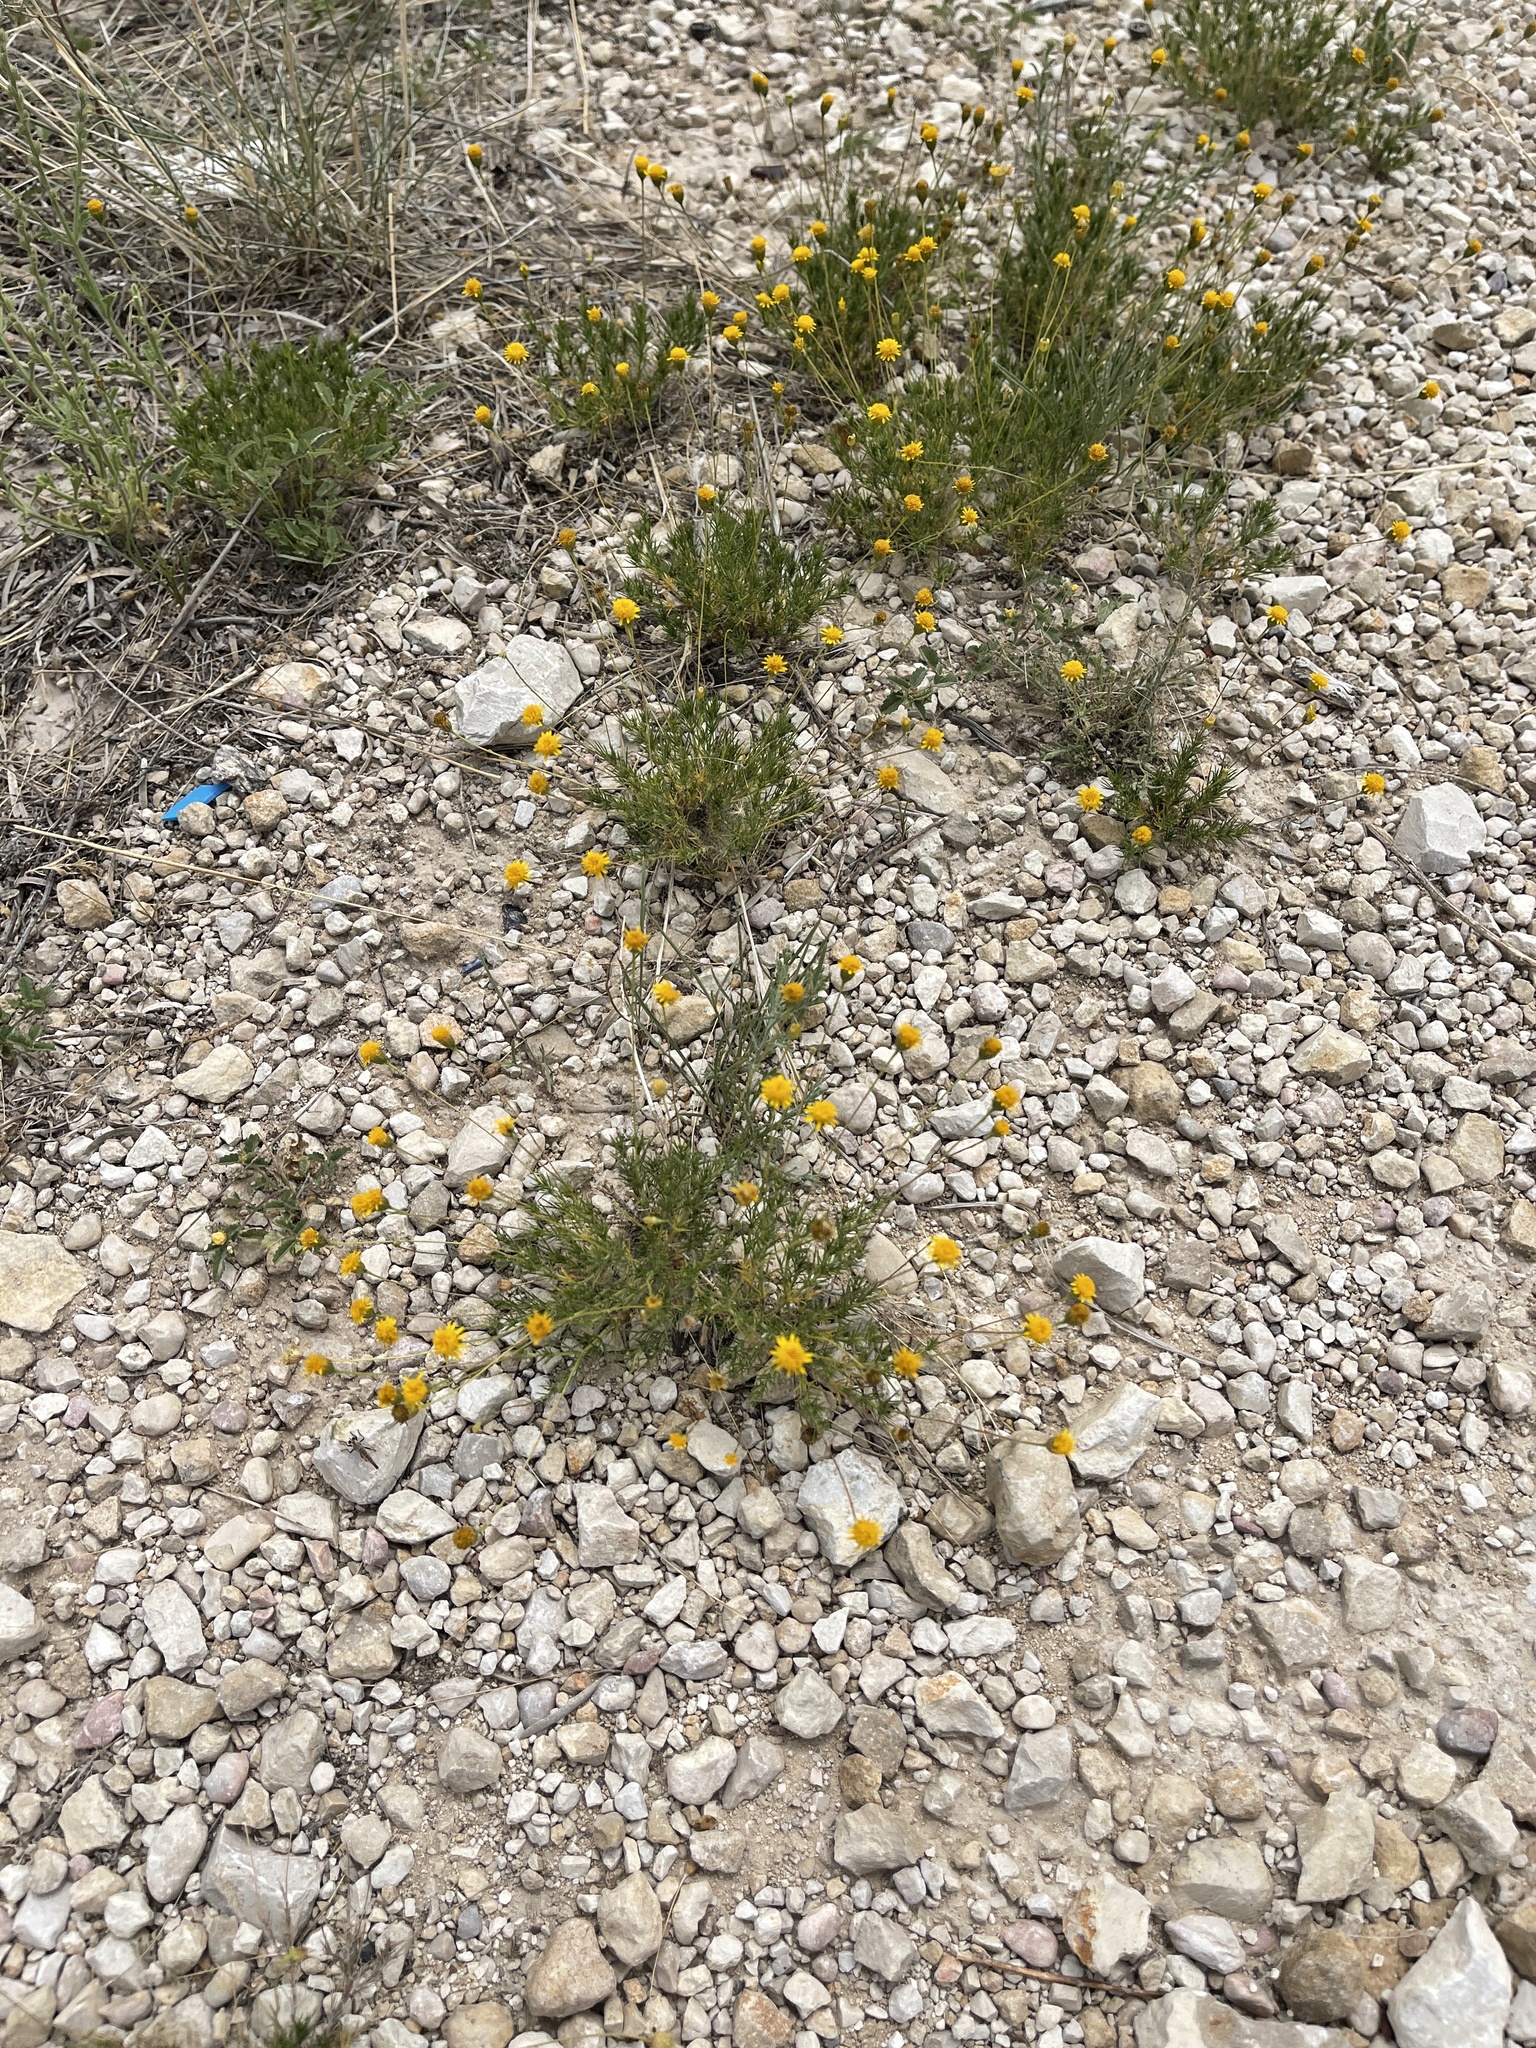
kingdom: Plantae
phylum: Tracheophyta
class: Magnoliopsida
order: Asterales
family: Asteraceae
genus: Thymophylla
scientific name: Thymophylla pentachaeta
